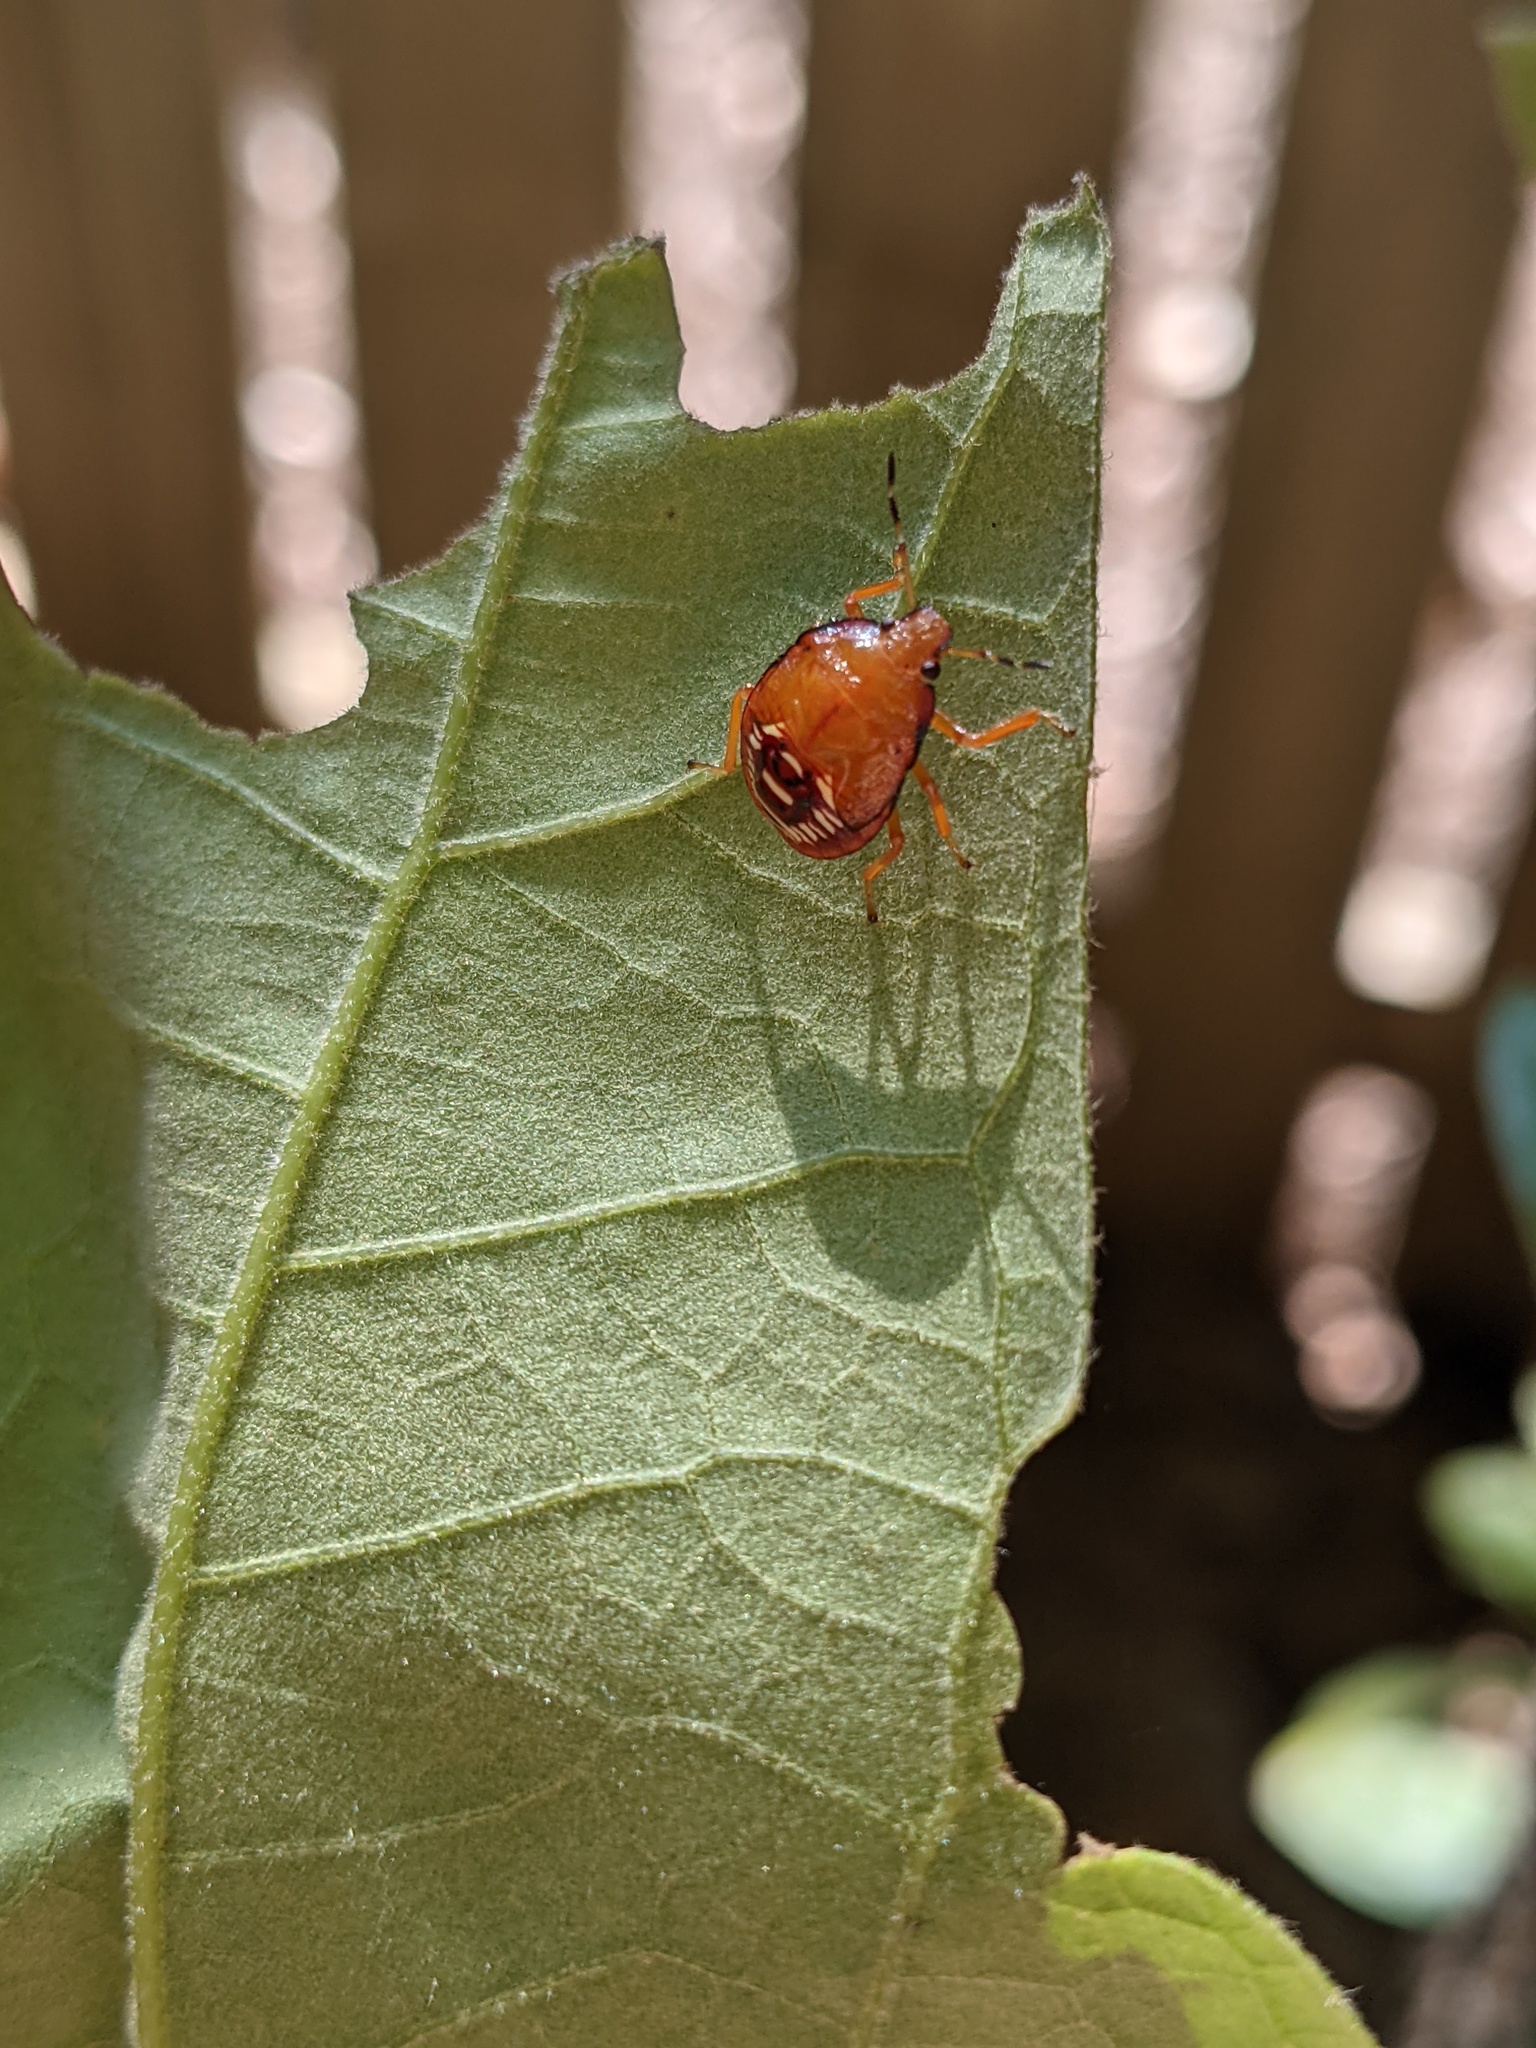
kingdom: Animalia
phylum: Arthropoda
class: Insecta
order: Hemiptera
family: Pentatomidae
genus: Podisus
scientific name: Podisus maculiventris
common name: Spined soldier bug
